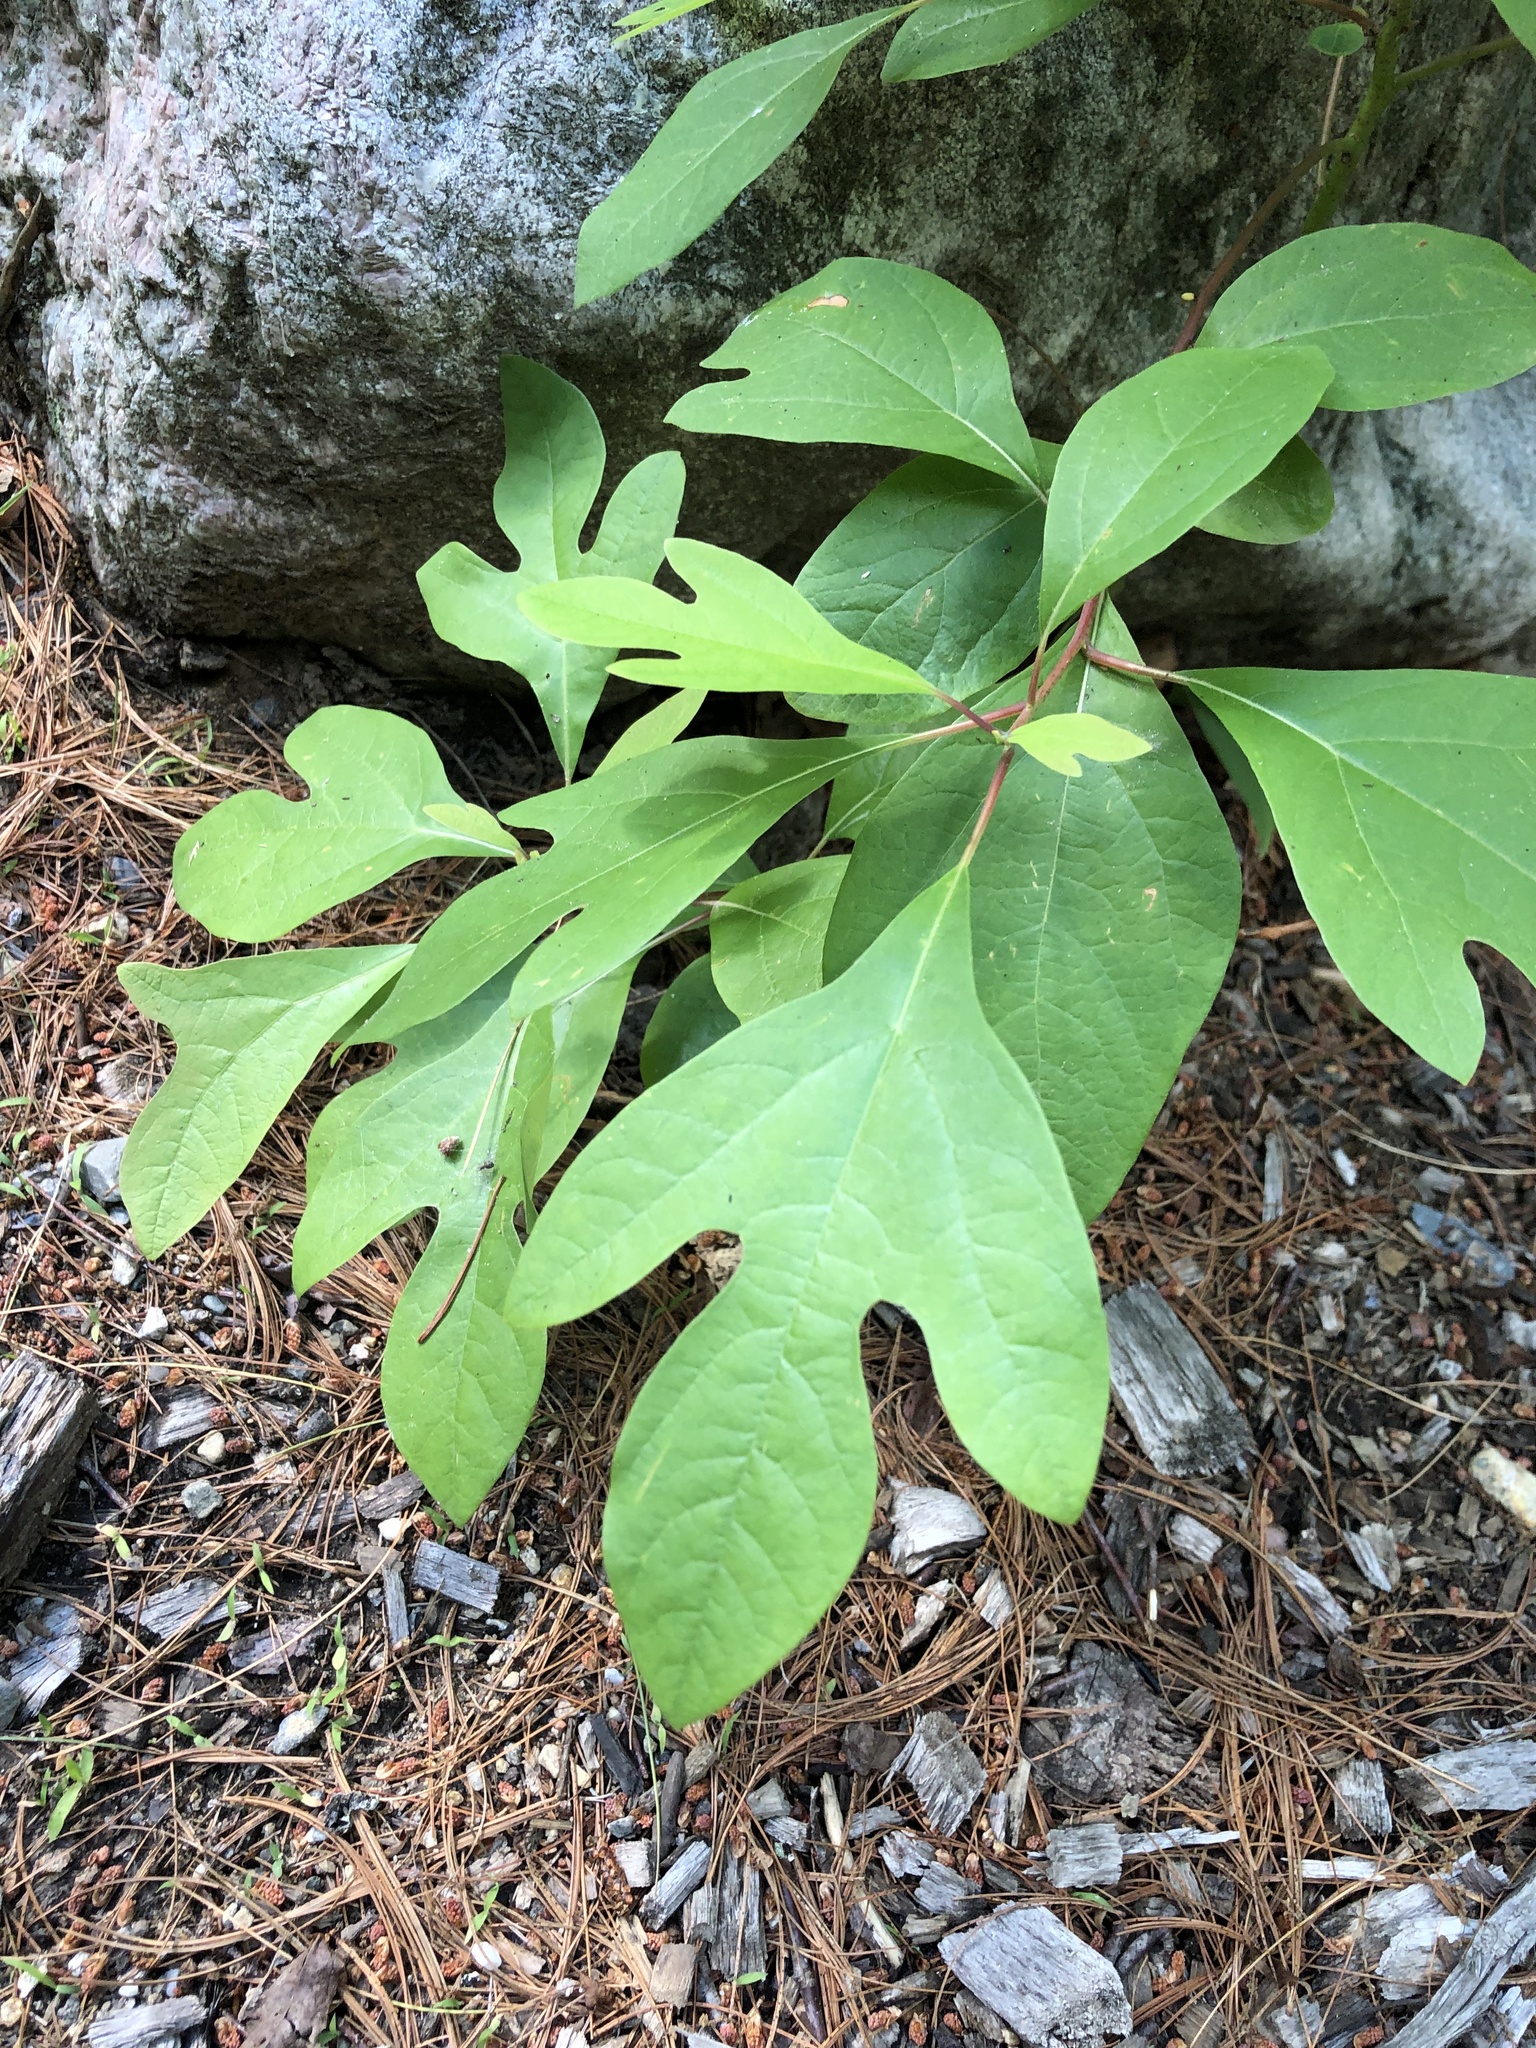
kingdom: Plantae
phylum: Tracheophyta
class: Magnoliopsida
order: Laurales
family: Lauraceae
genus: Sassafras
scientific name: Sassafras albidum
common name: Sassafras
